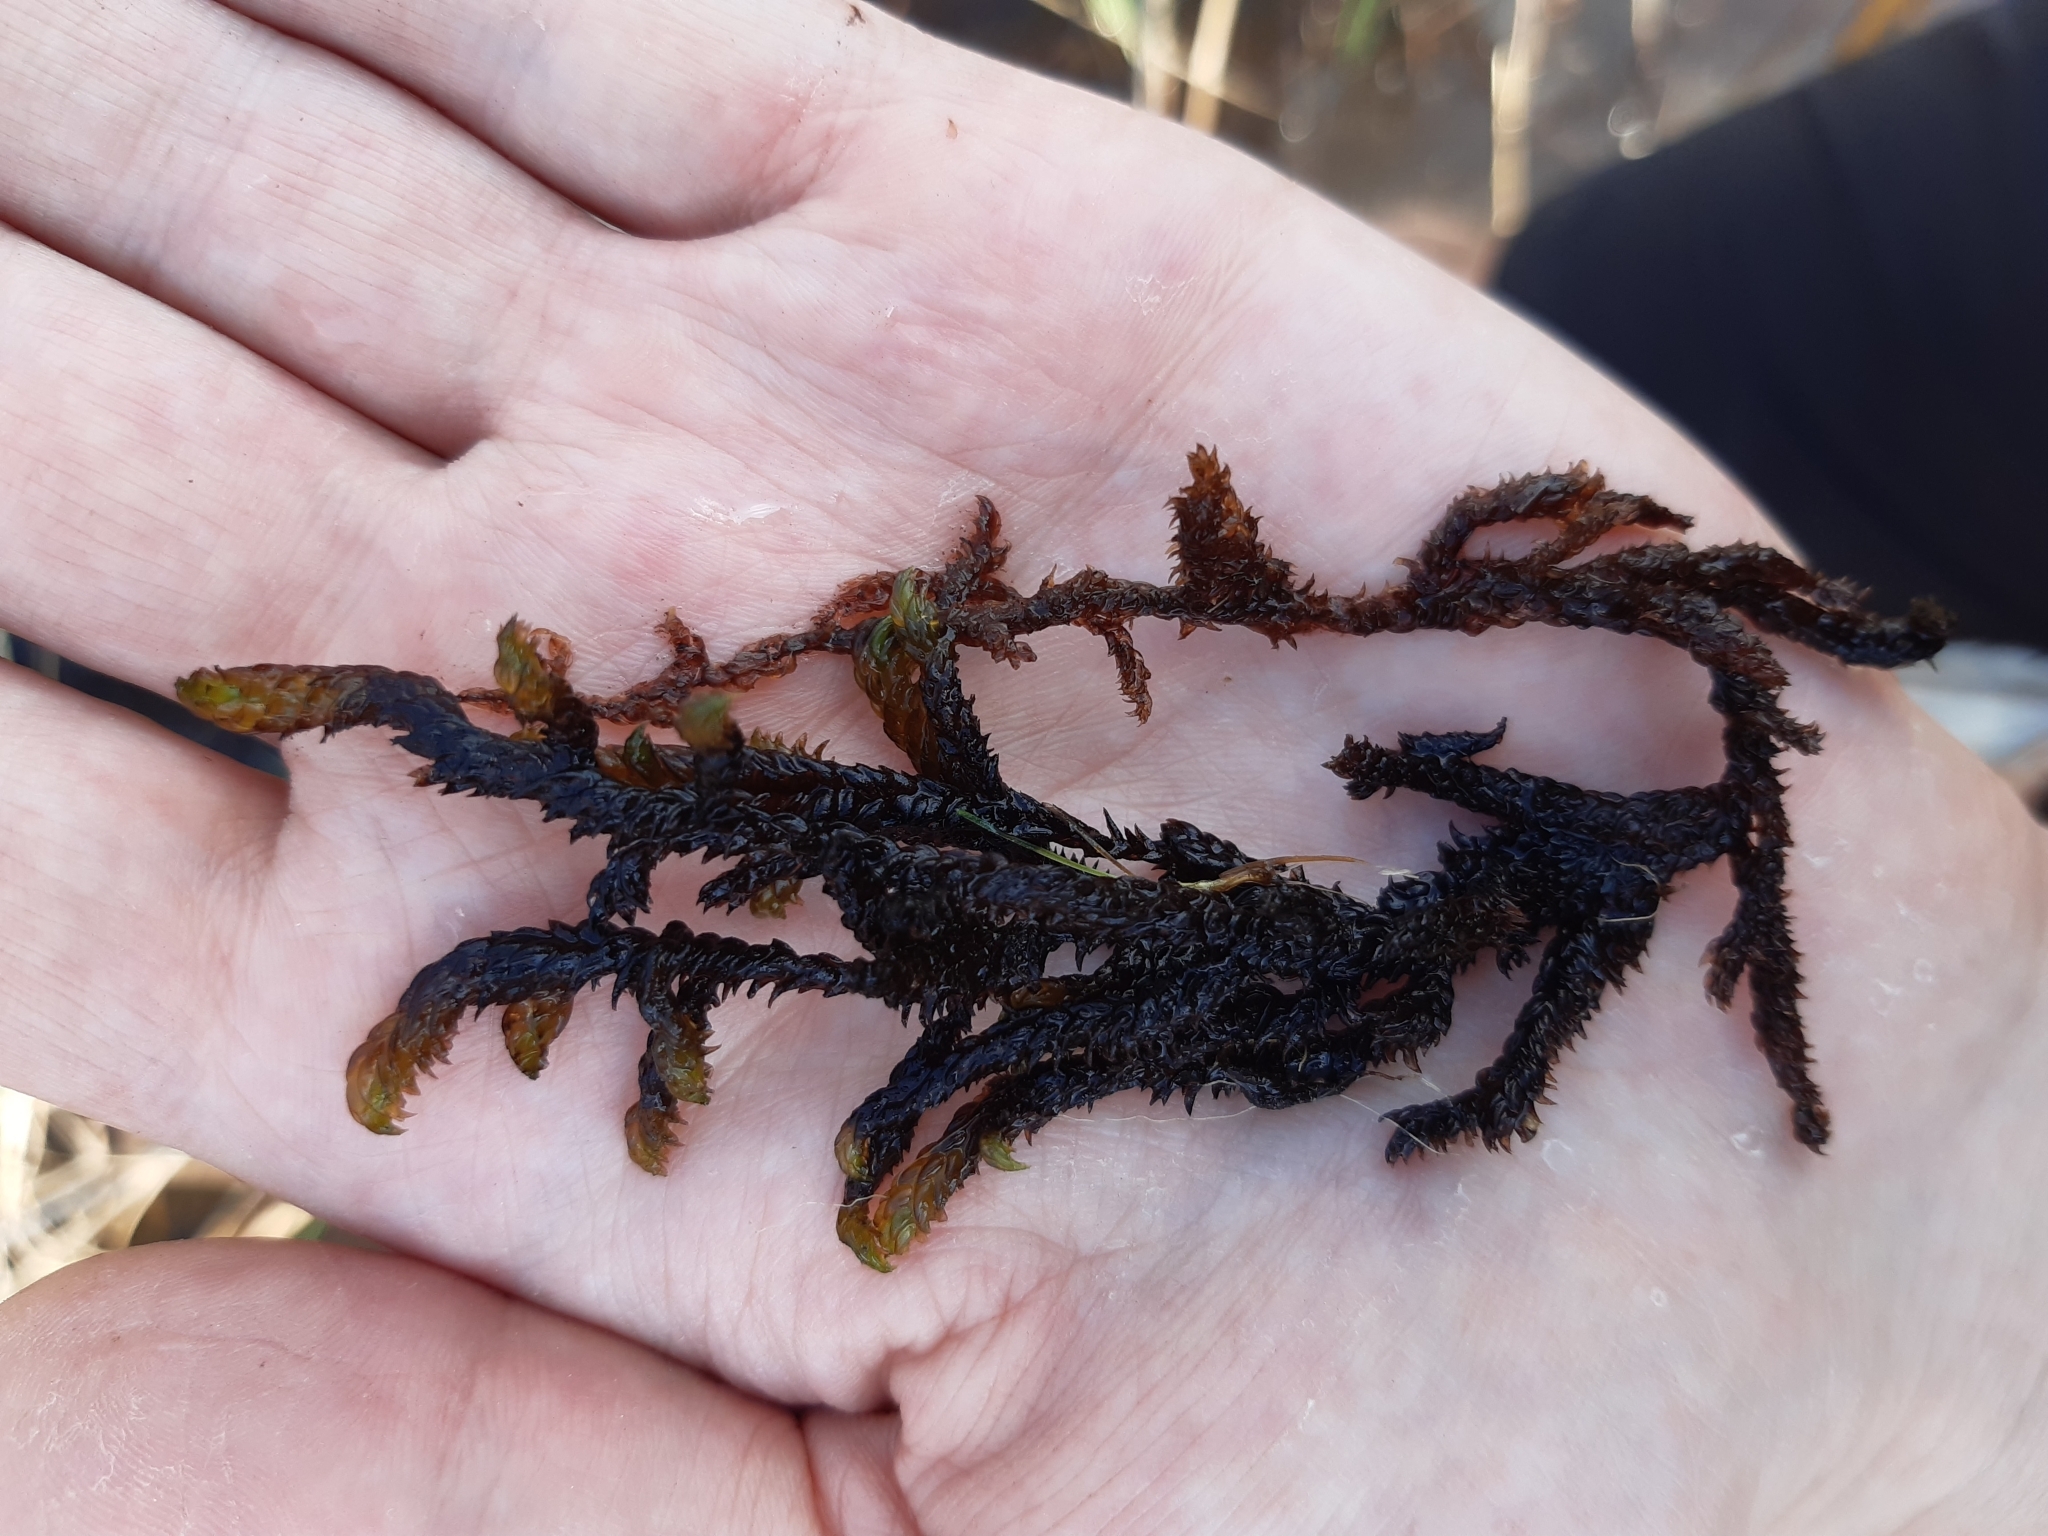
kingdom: Plantae
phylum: Bryophyta
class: Bryopsida
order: Hypnales
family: Scorpidiaceae
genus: Scorpidium
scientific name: Scorpidium scorpioides
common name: Hooked scorpion moss
